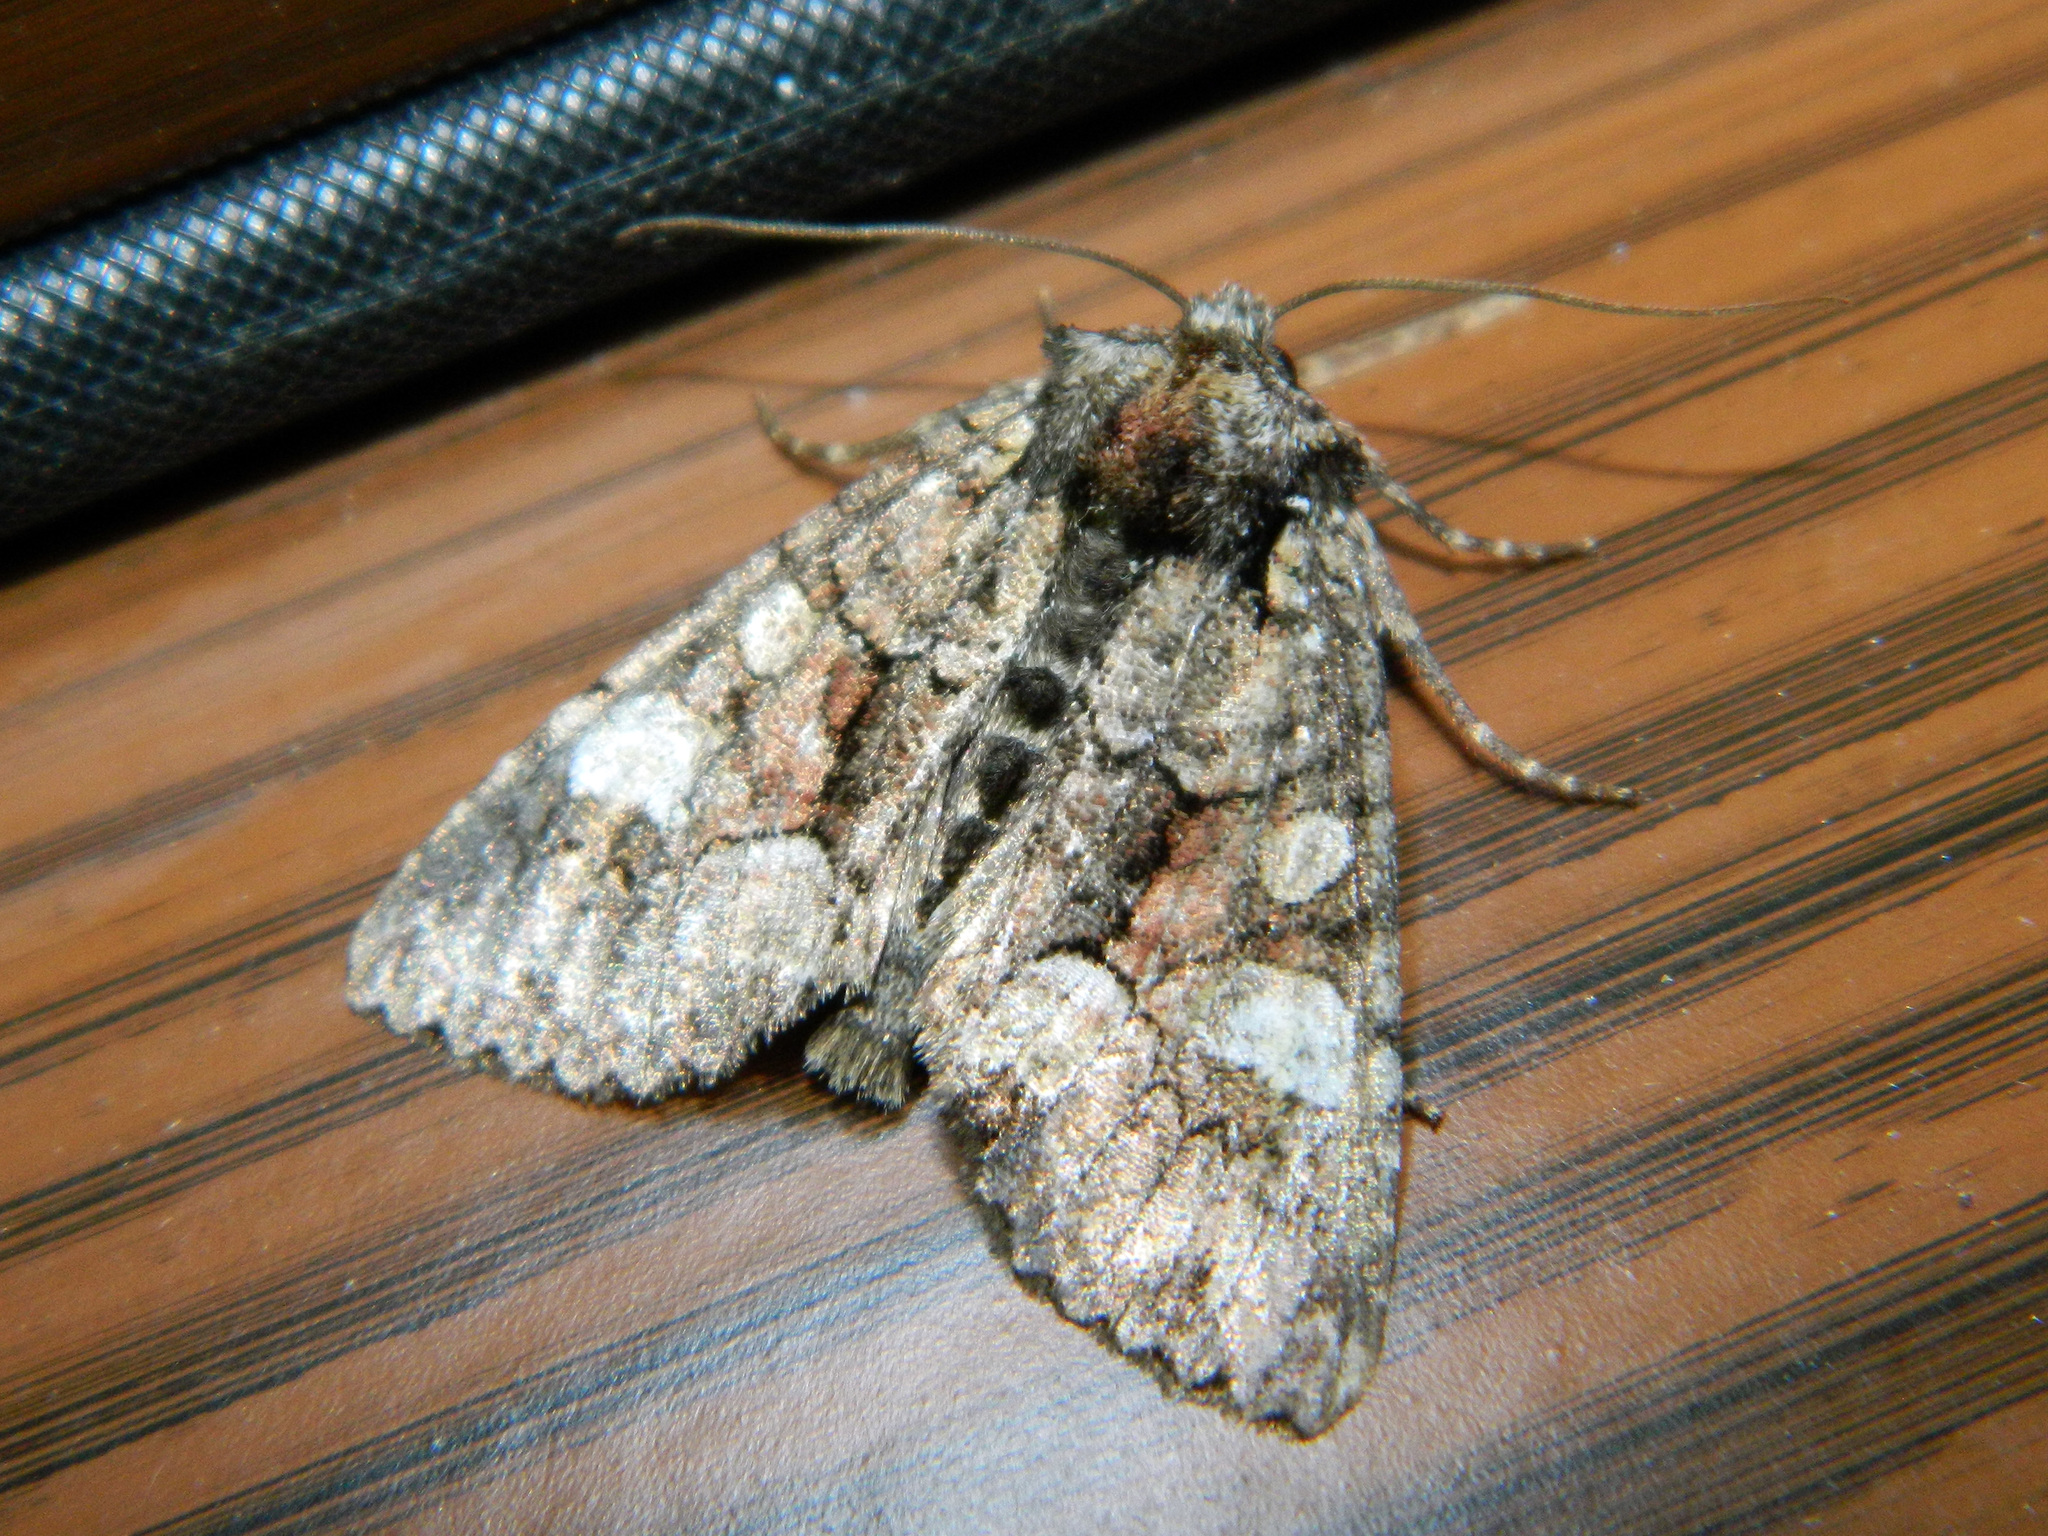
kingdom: Animalia
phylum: Arthropoda
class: Insecta
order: Lepidoptera
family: Noctuidae
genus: Fishia
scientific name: Fishia illocata
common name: Wandering brocade moth
